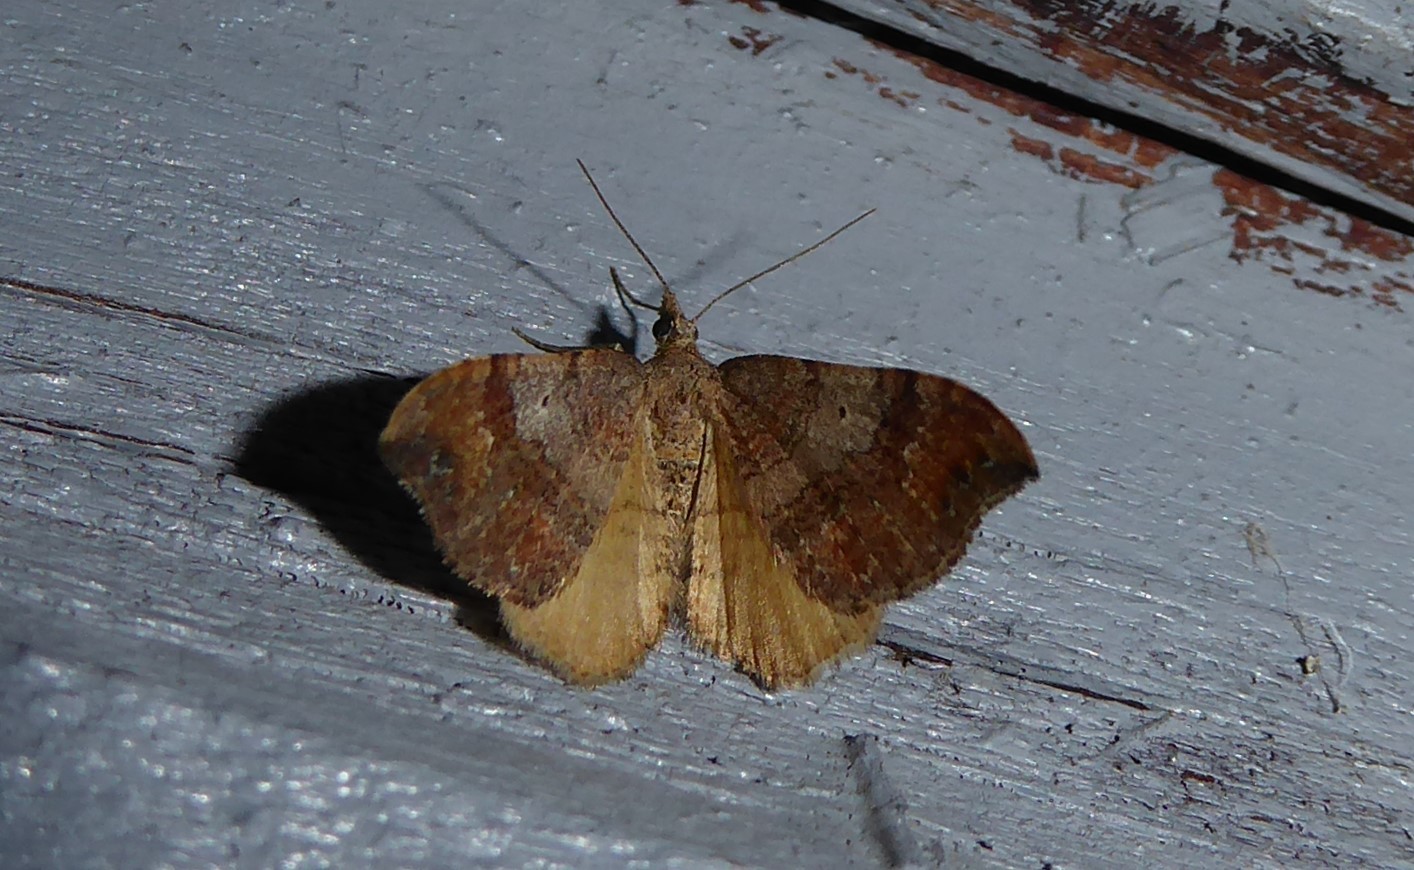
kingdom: Animalia
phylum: Arthropoda
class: Insecta
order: Lepidoptera
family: Geometridae
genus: Homodotis
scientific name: Homodotis megaspilata
